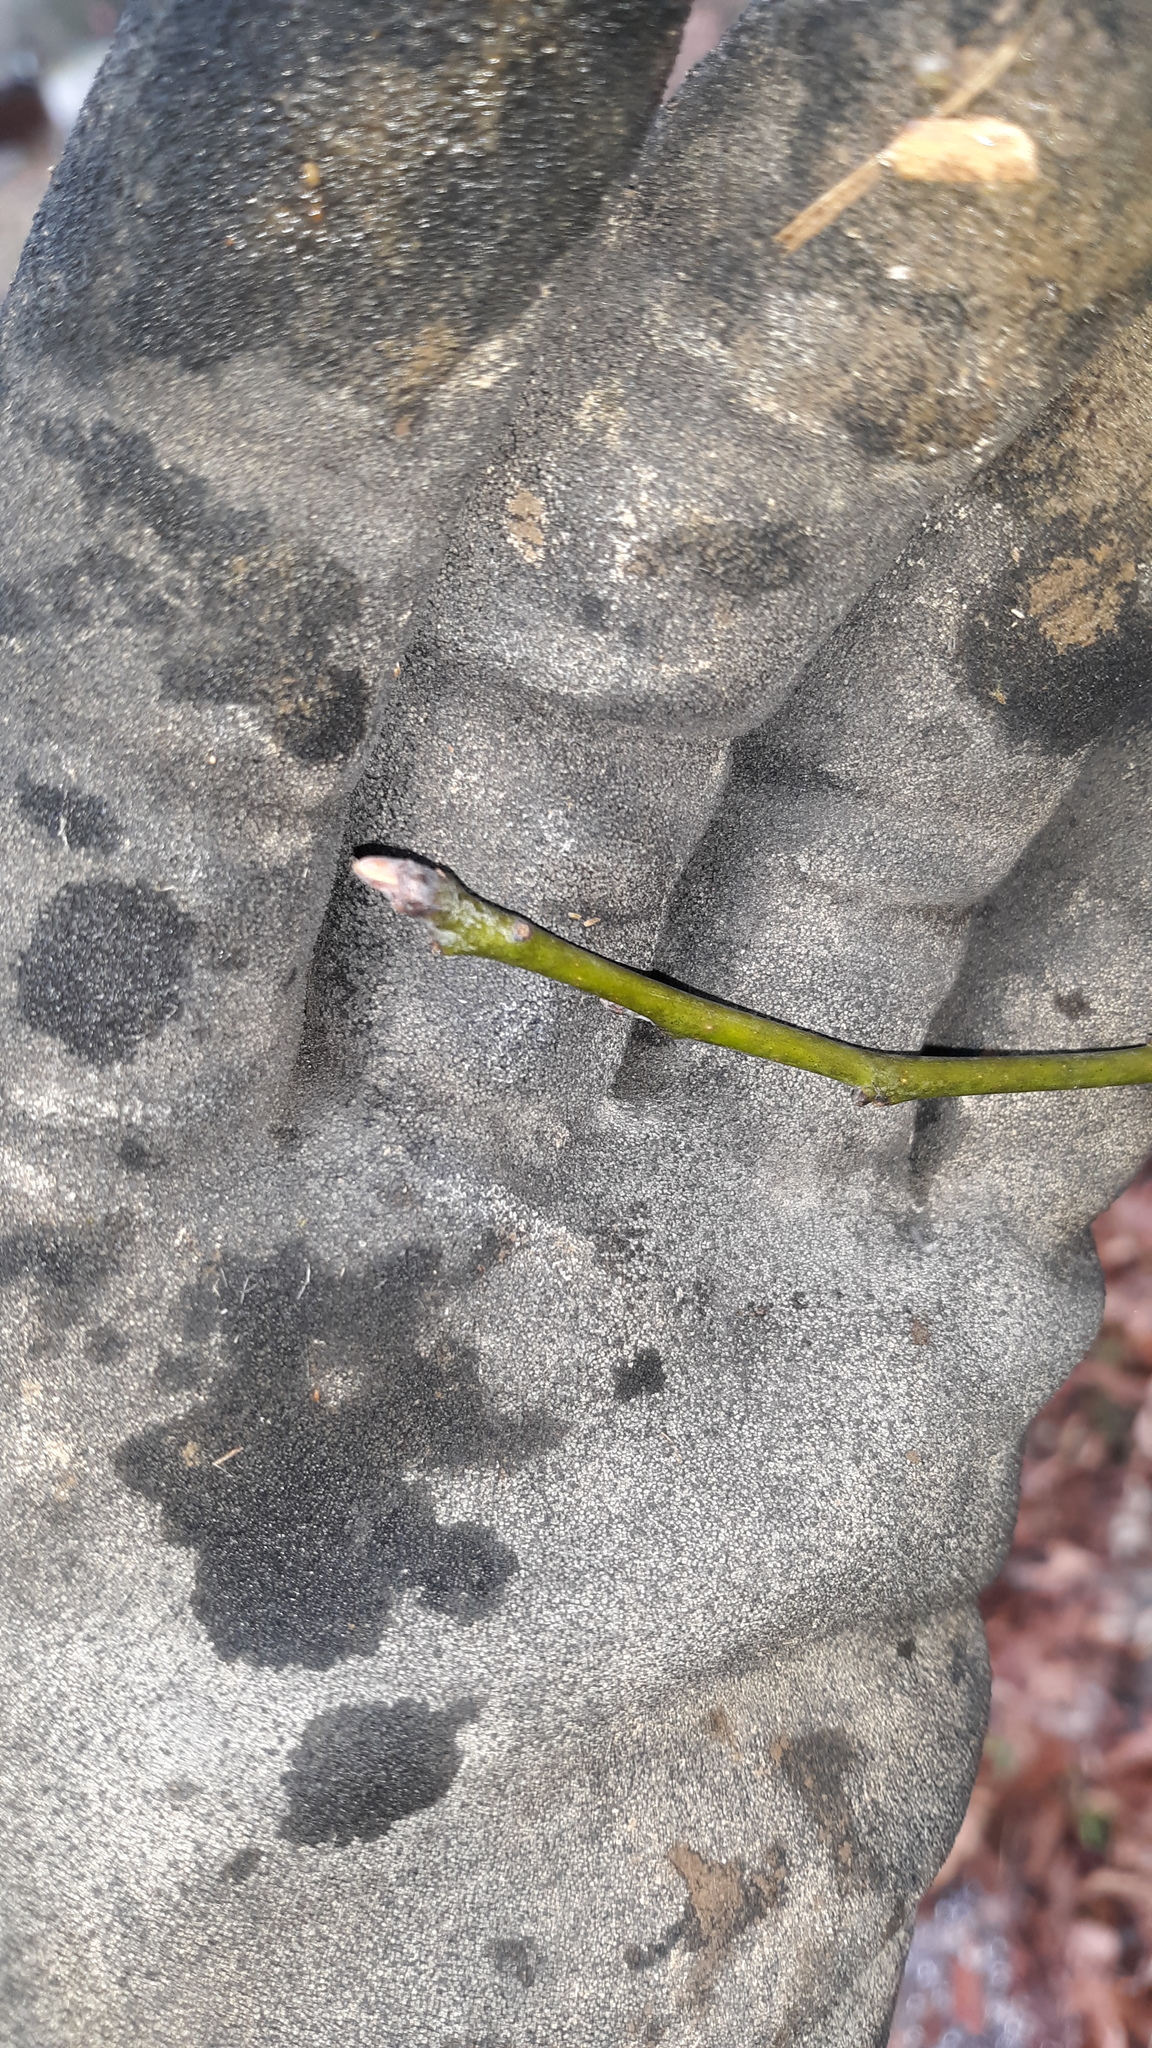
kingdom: Plantae
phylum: Tracheophyta
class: Magnoliopsida
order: Laurales
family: Lauraceae
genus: Sassafras
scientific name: Sassafras albidum
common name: Sassafras
